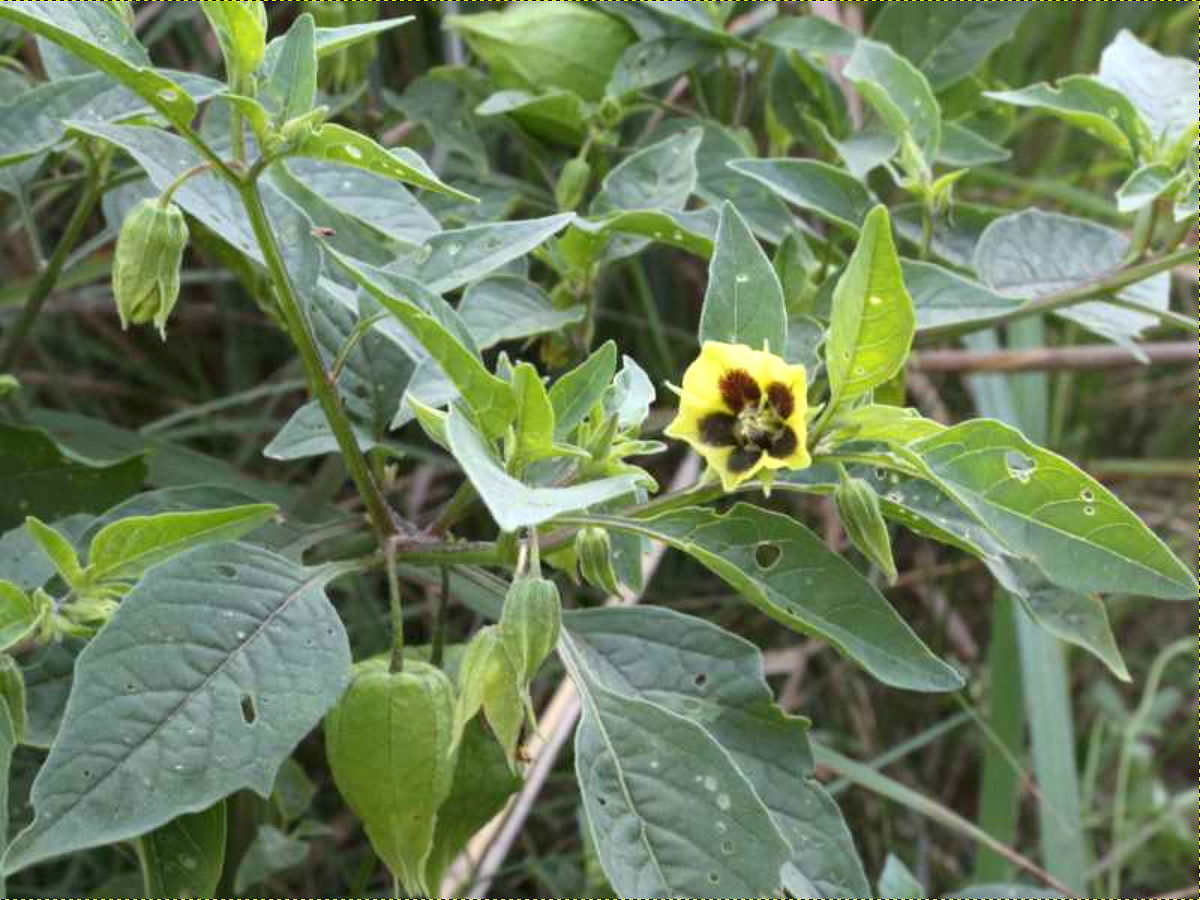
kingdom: Plantae
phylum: Tracheophyta
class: Magnoliopsida
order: Solanales
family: Solanaceae
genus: Physalis
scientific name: Physalis longifolia
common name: Common ground-cherry
